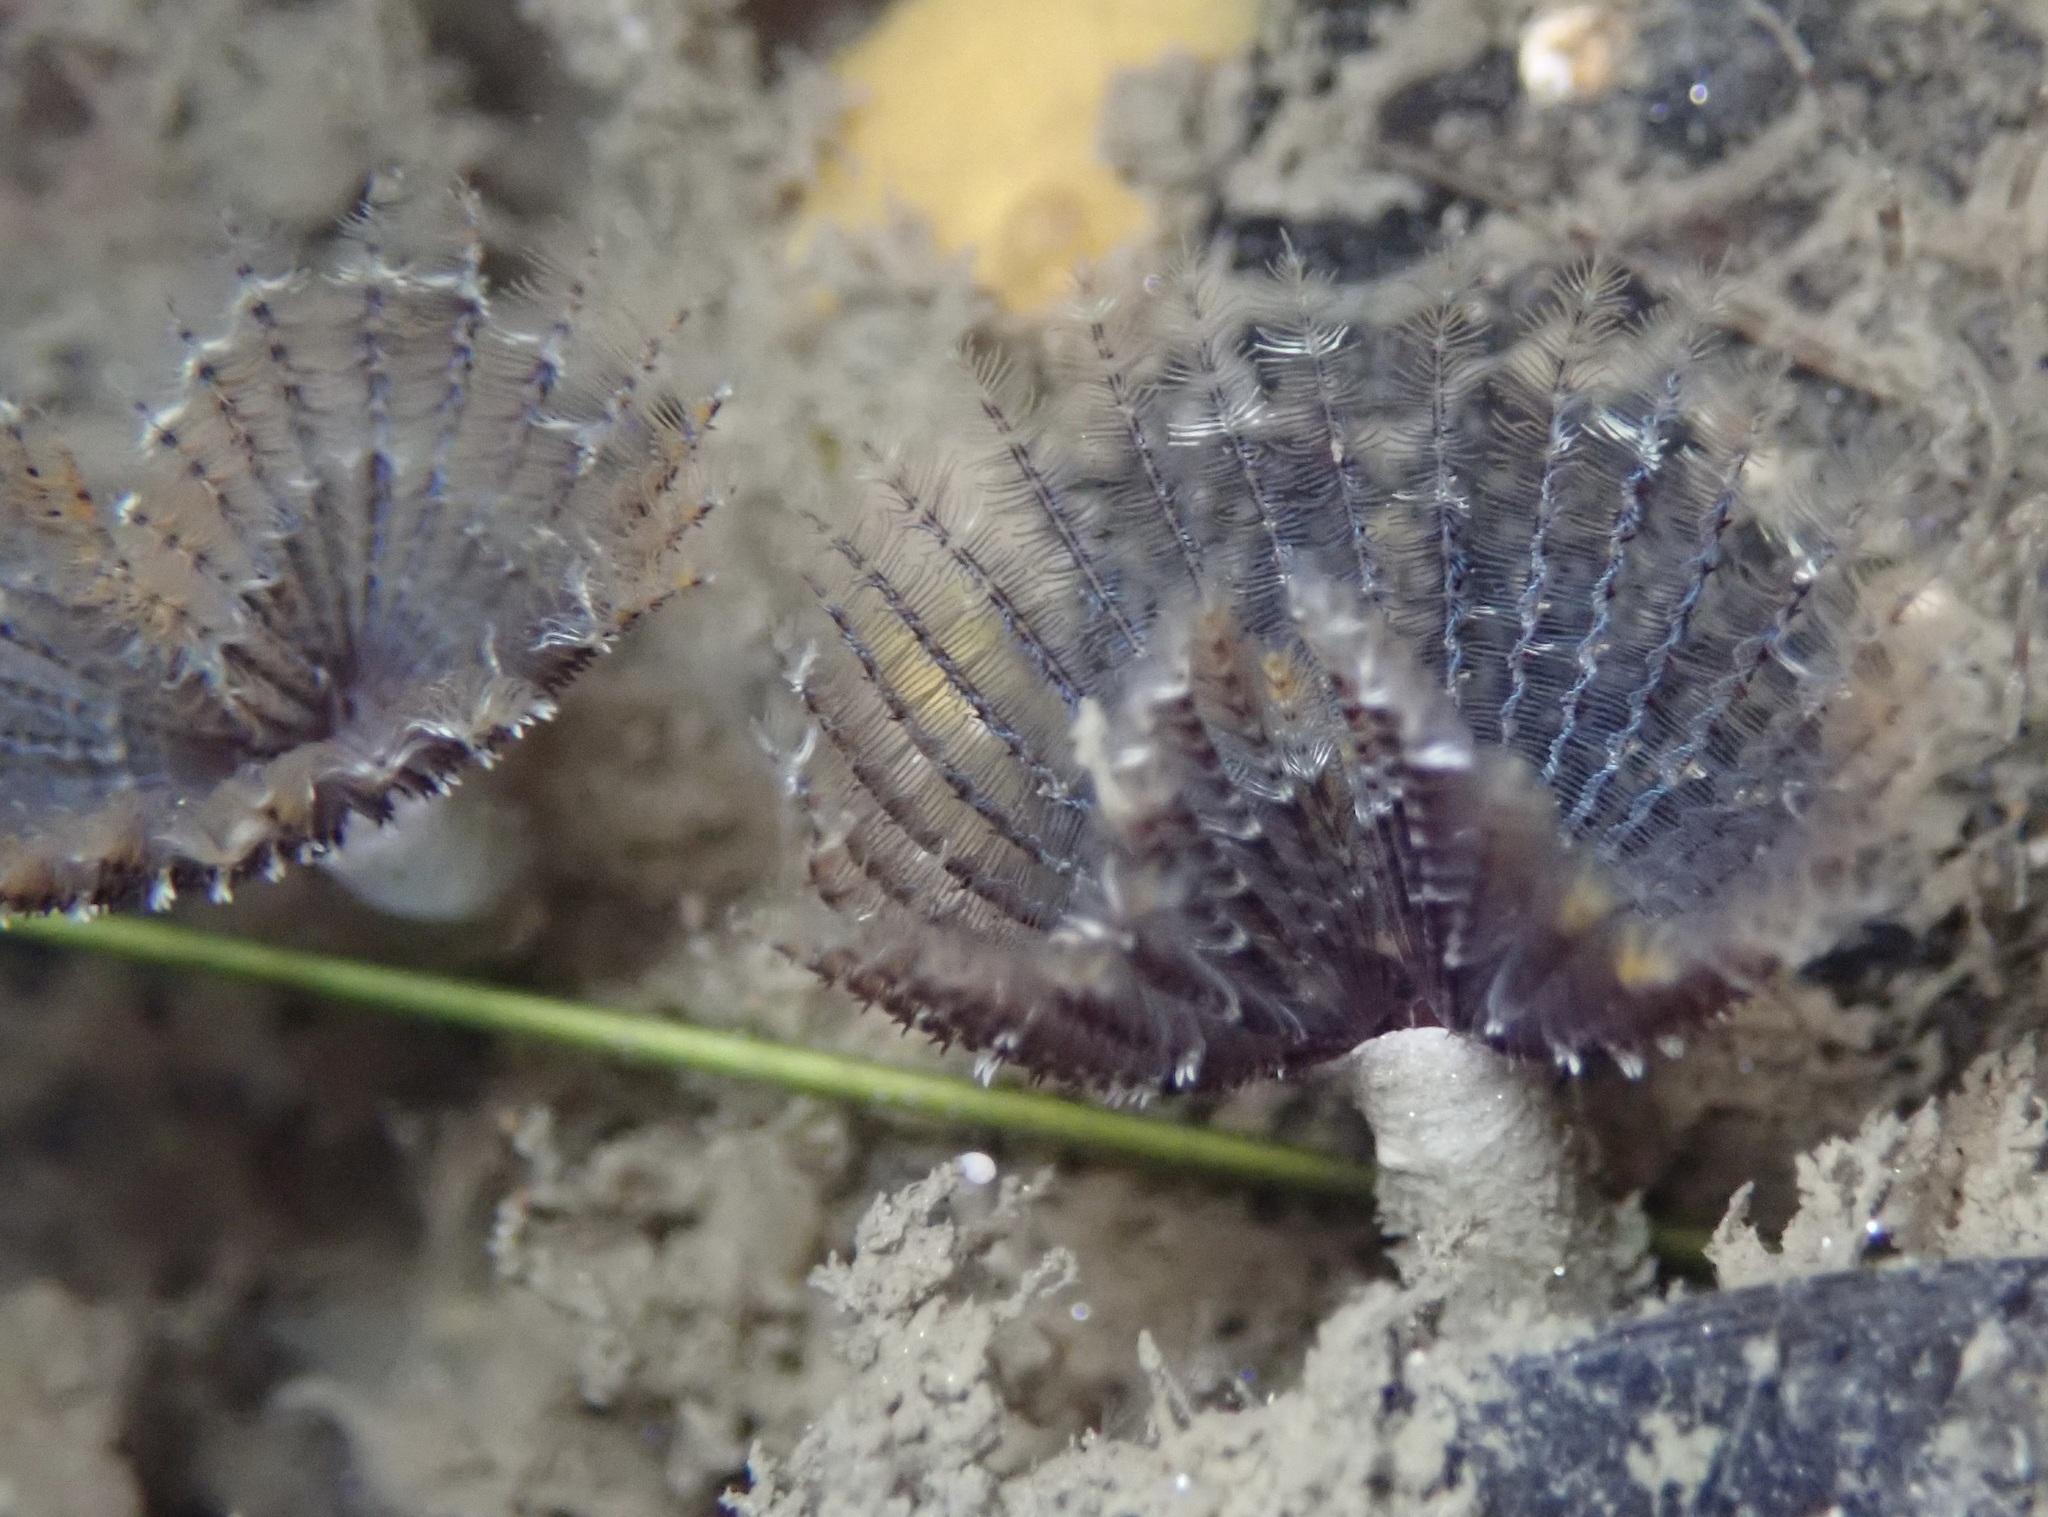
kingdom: Animalia
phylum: Annelida
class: Polychaeta
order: Sabellida
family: Sabellidae
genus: Branchiomma
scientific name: Branchiomma bairdi
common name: Sabellid polychaete
